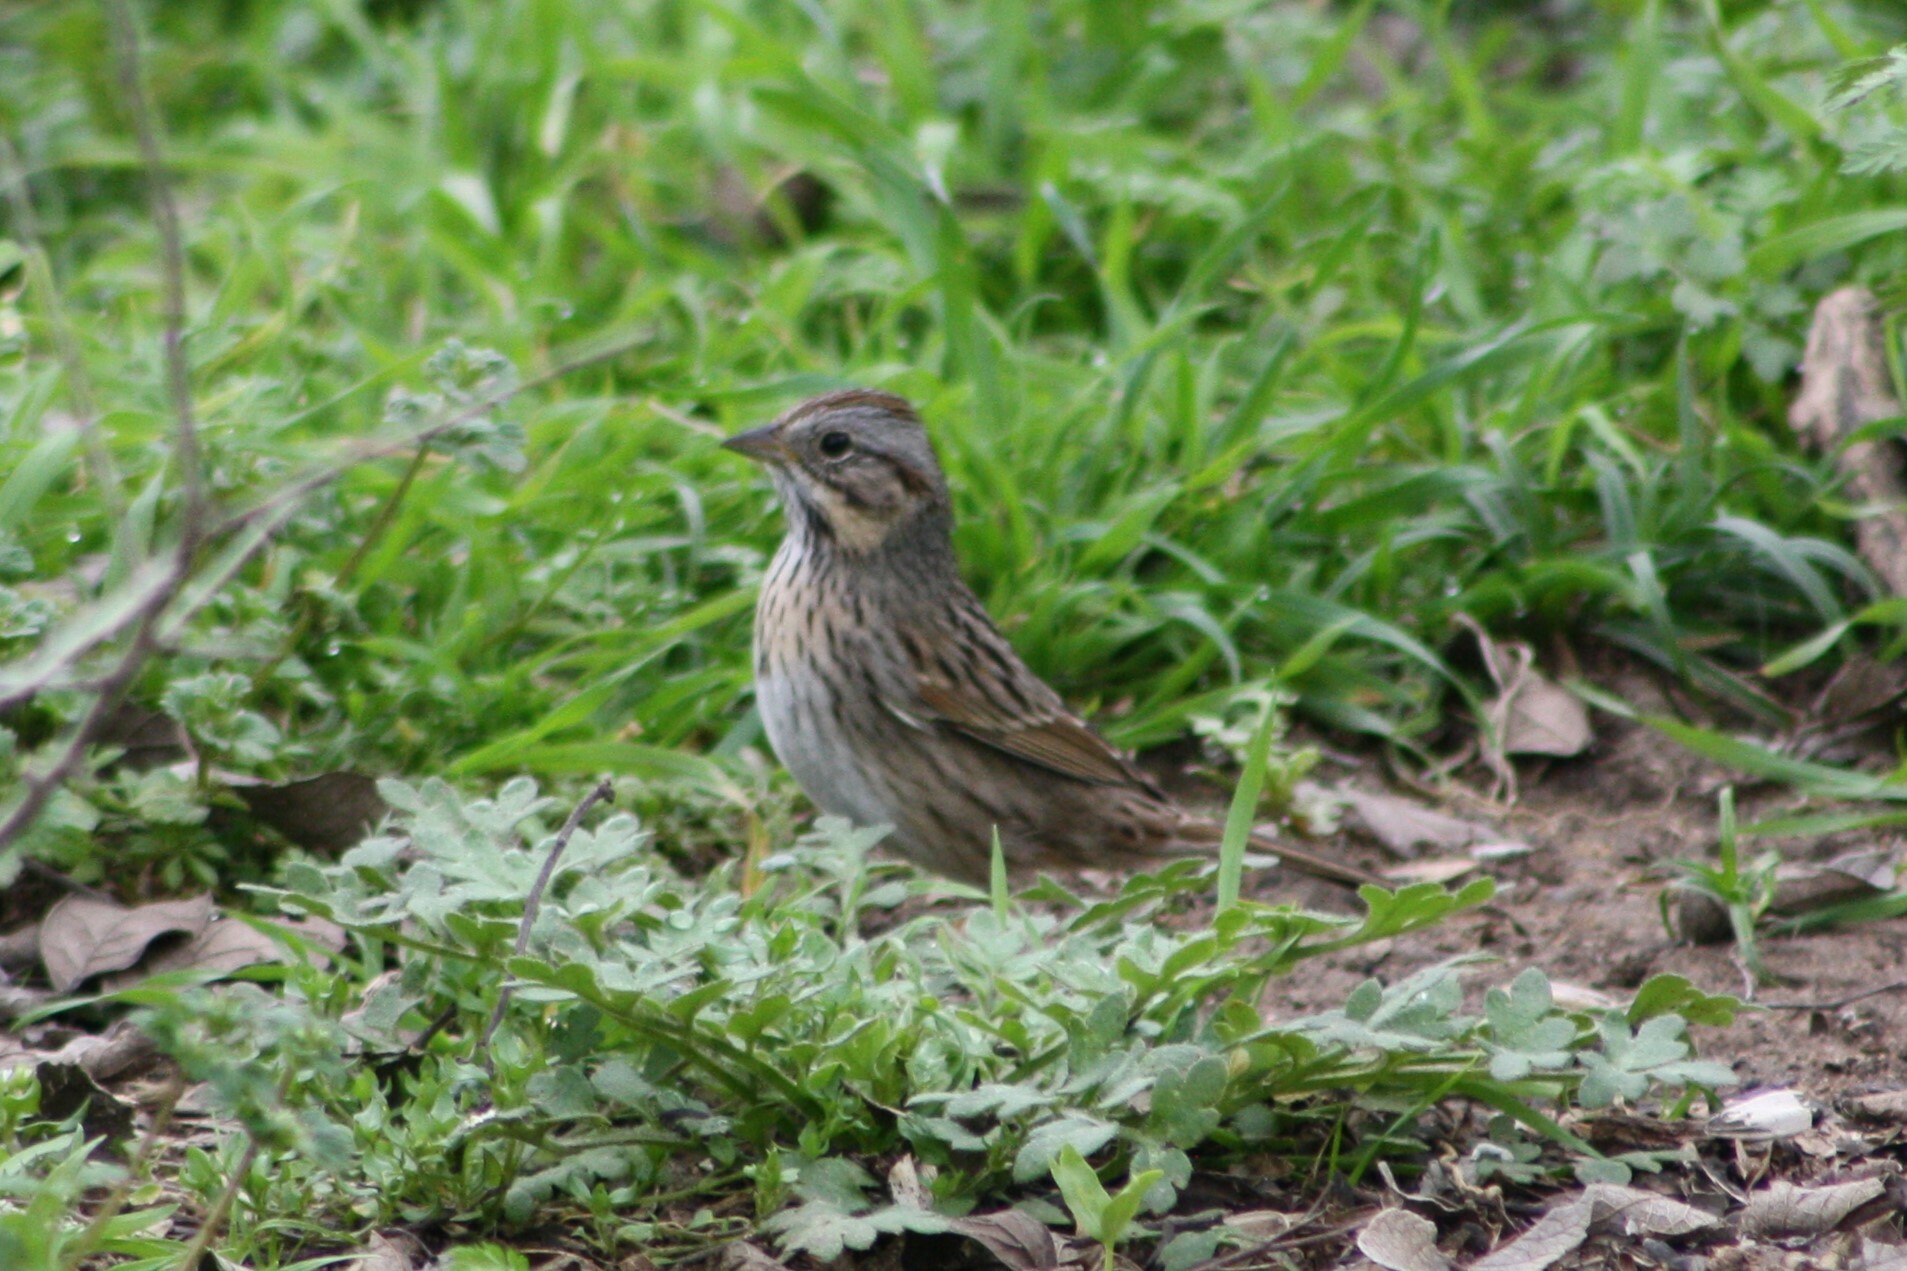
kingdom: Animalia
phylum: Chordata
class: Aves
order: Passeriformes
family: Passerellidae
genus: Melospiza
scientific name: Melospiza lincolnii
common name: Lincoln's sparrow
